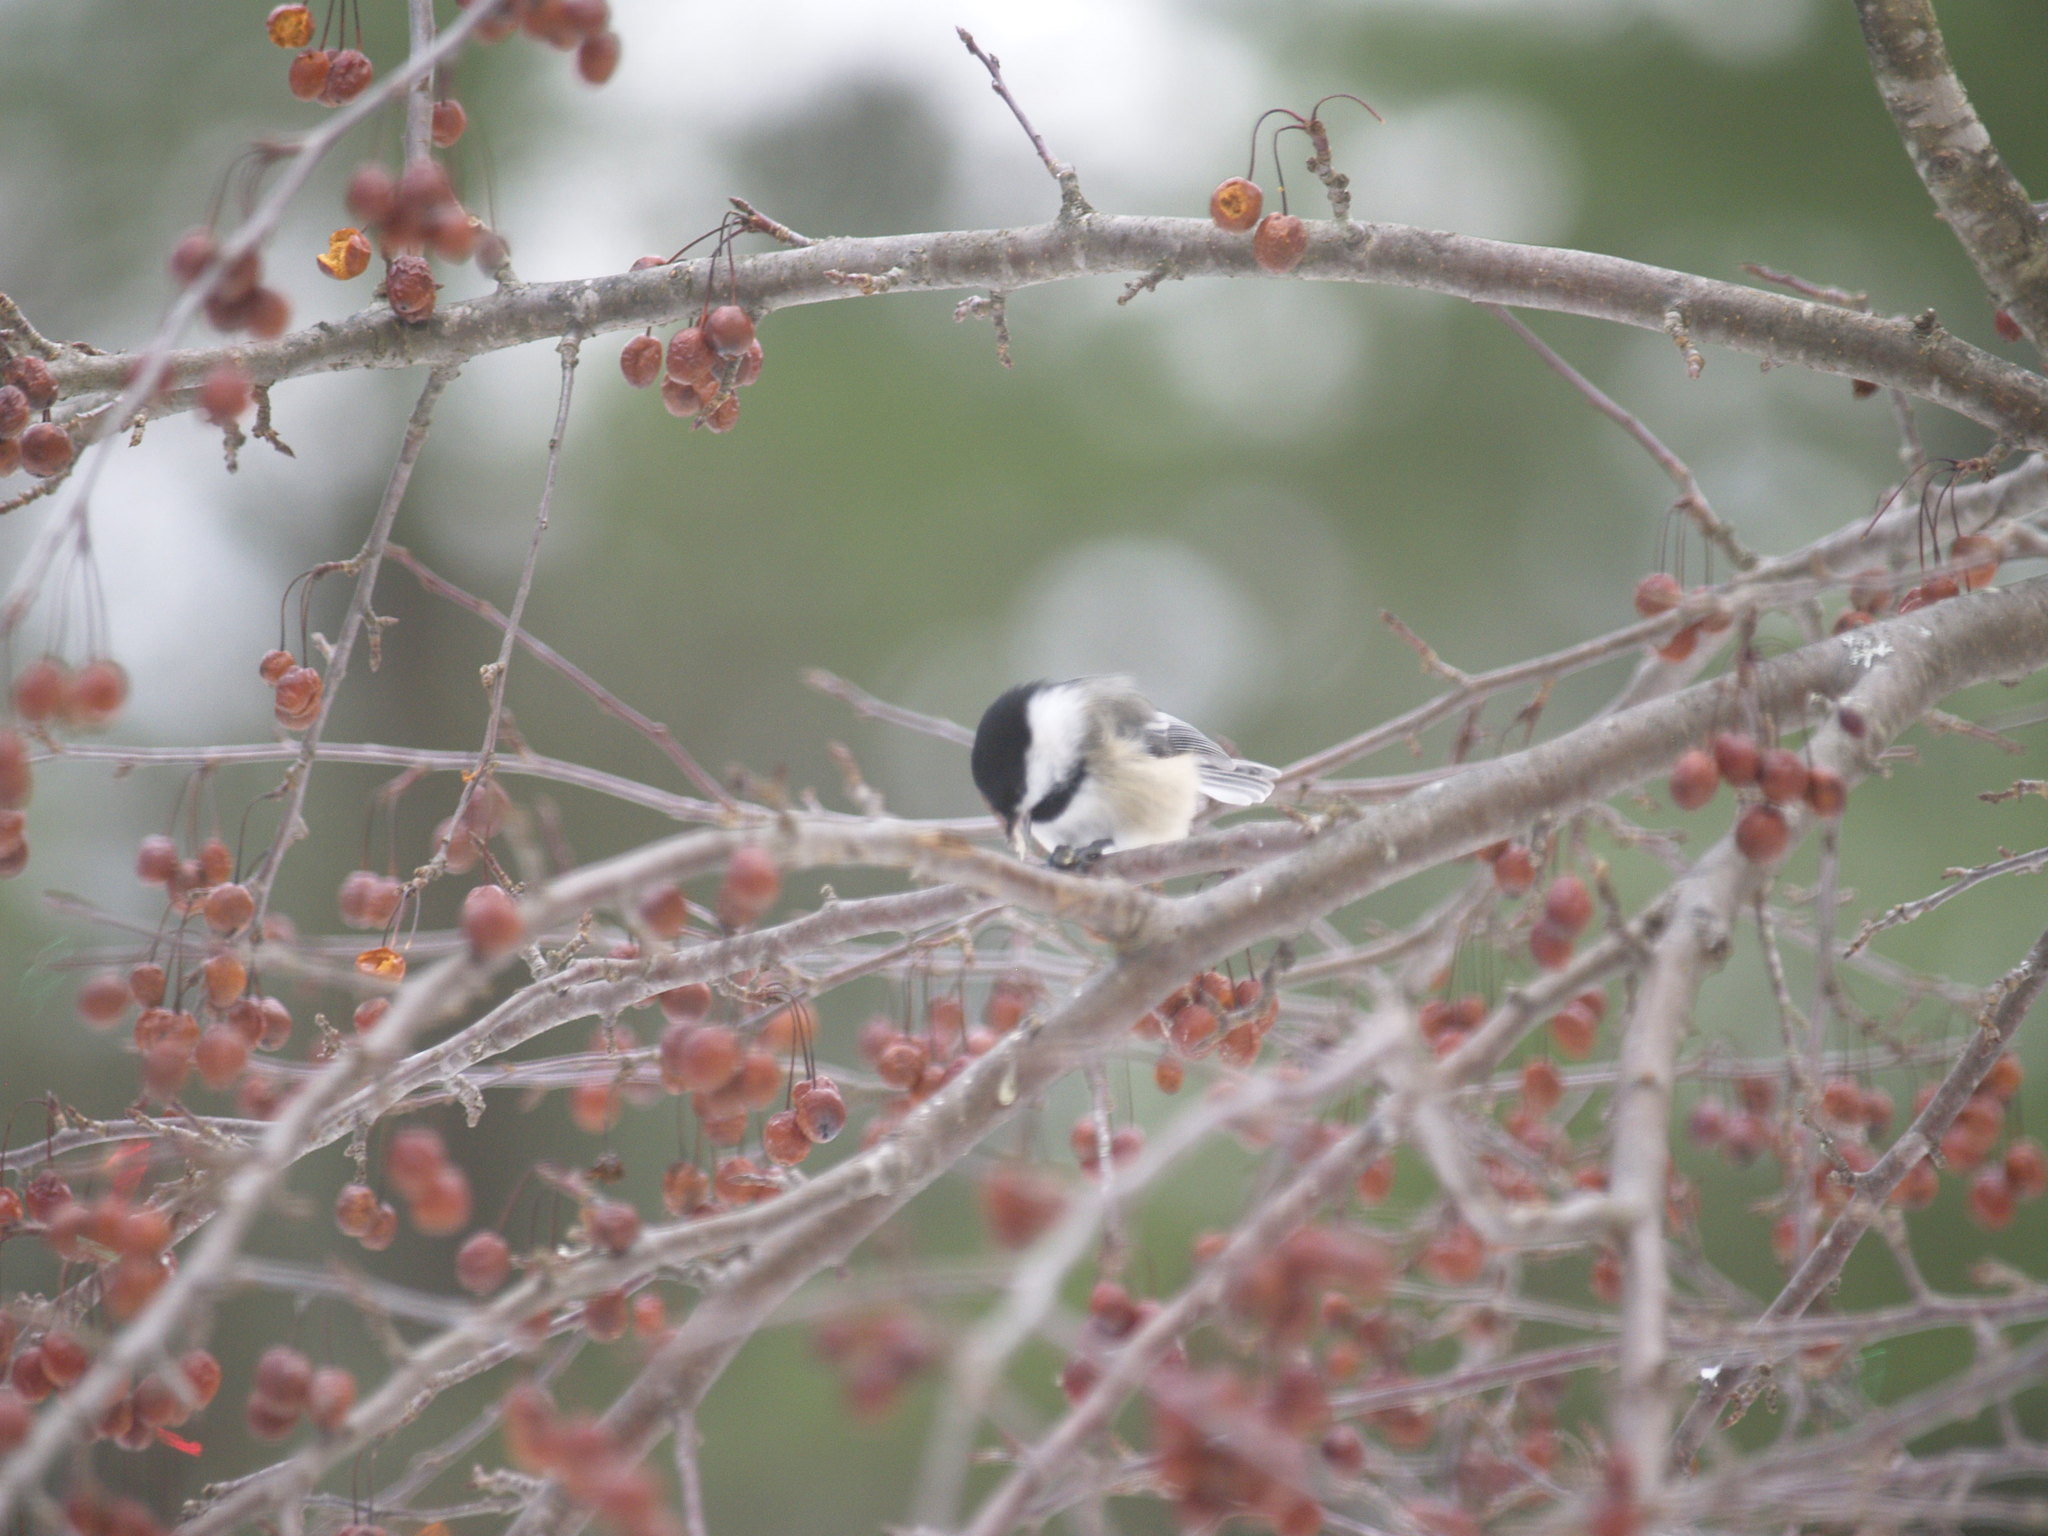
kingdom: Animalia
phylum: Chordata
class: Aves
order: Passeriformes
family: Paridae
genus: Poecile
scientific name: Poecile atricapillus
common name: Black-capped chickadee
